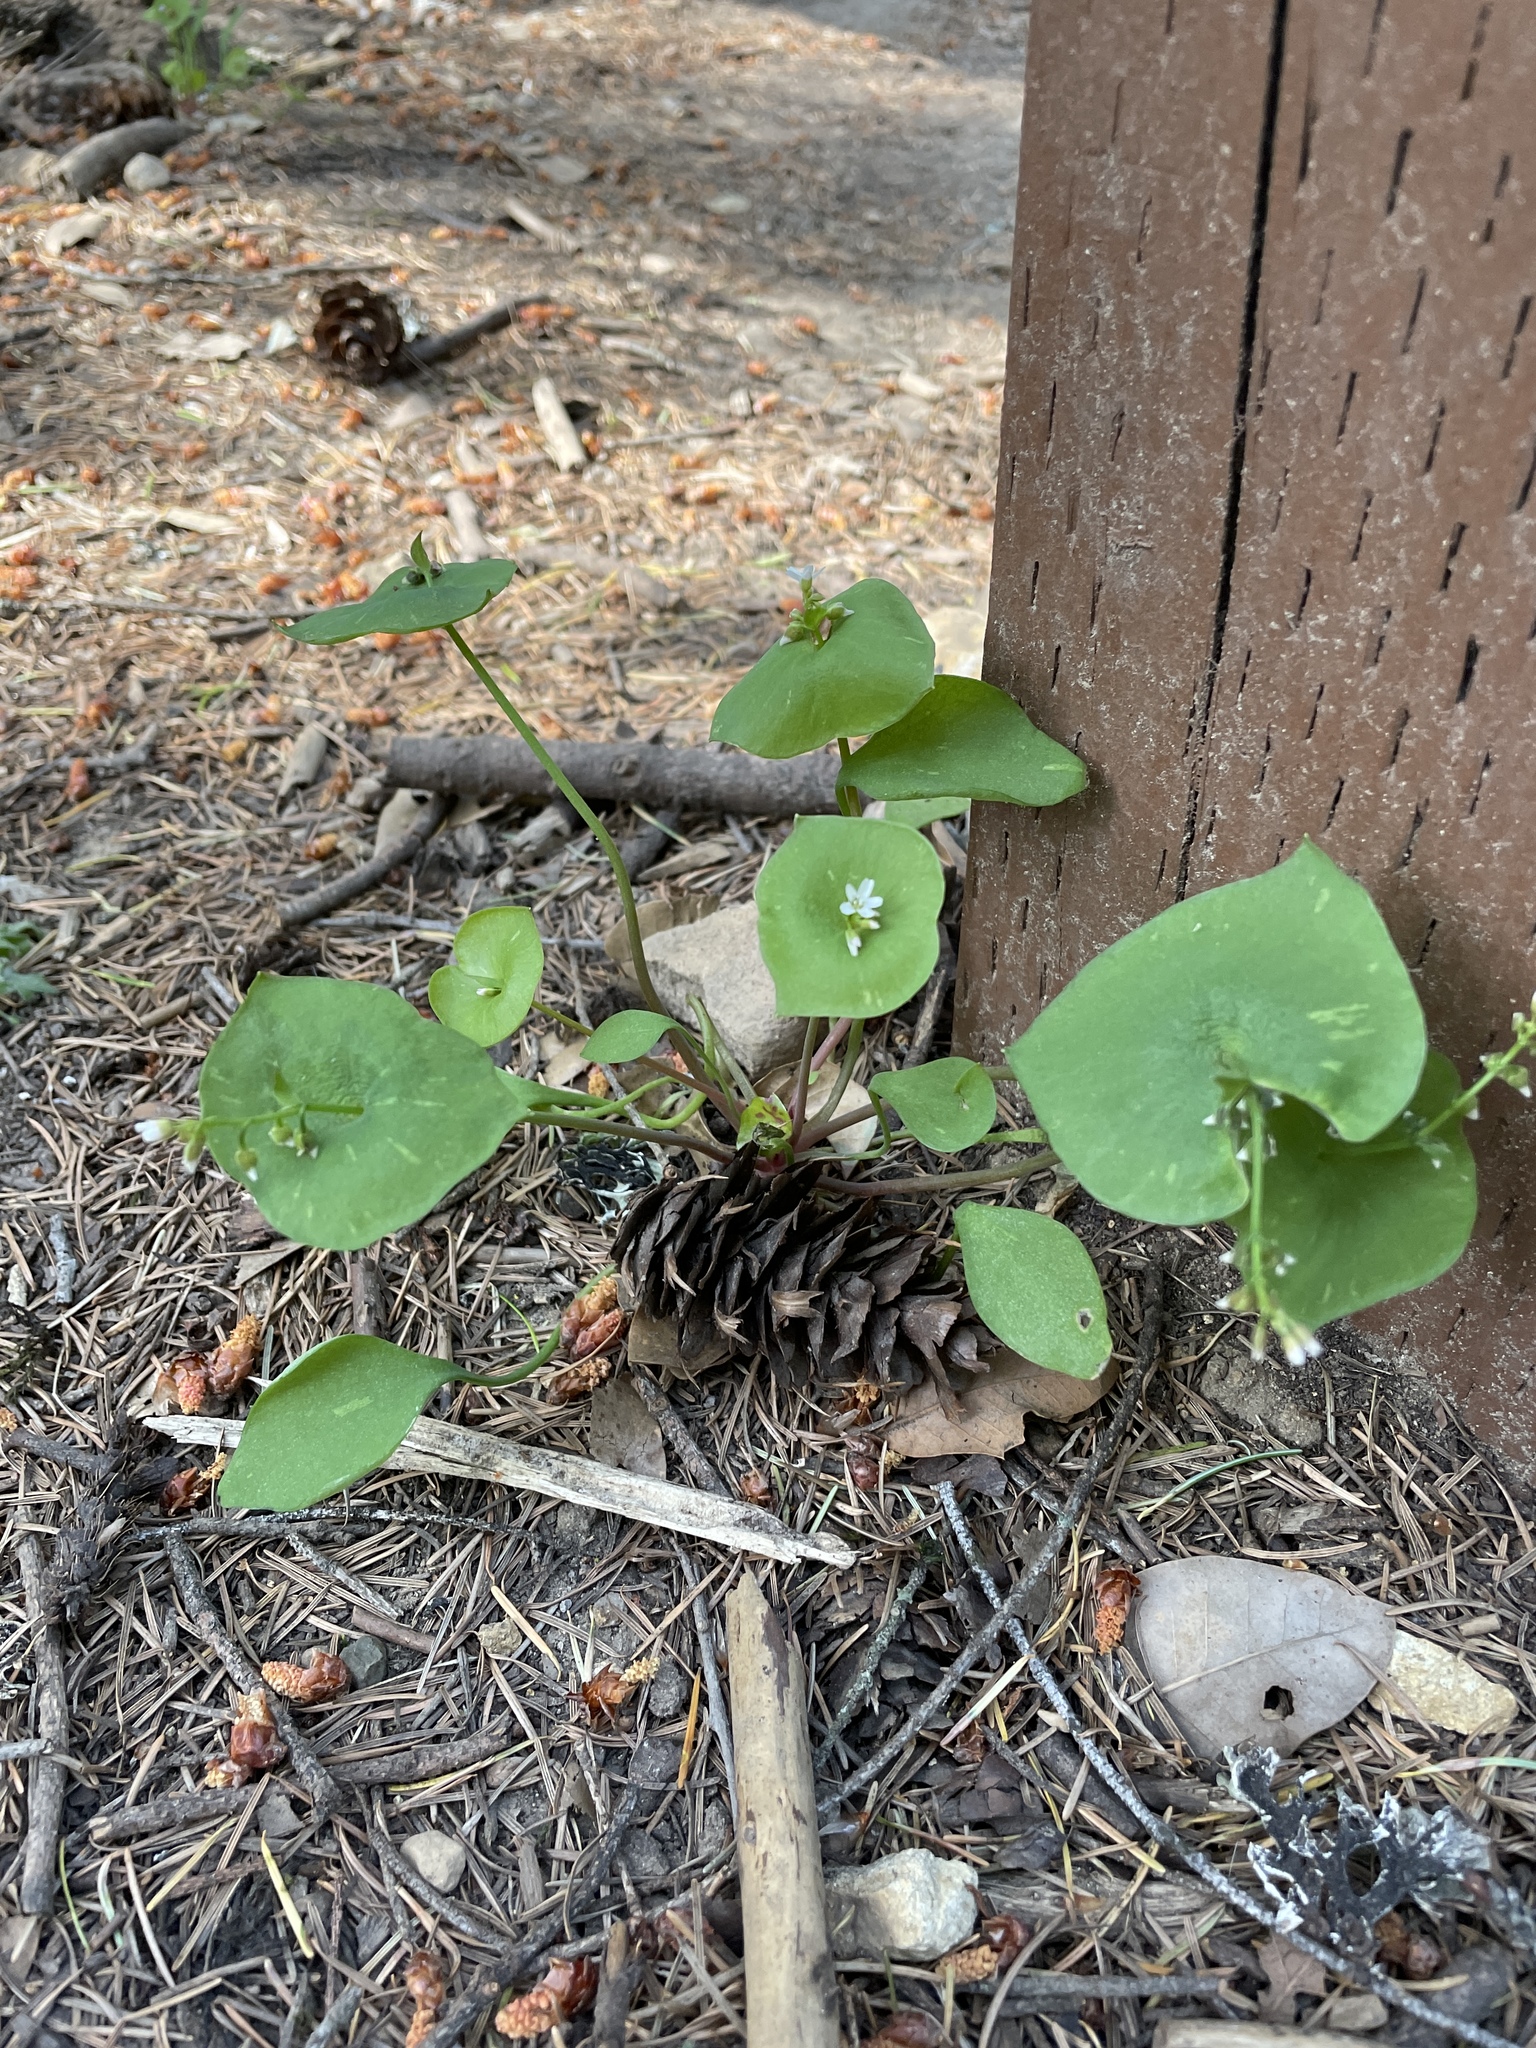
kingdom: Plantae
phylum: Tracheophyta
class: Magnoliopsida
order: Caryophyllales
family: Montiaceae
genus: Claytonia
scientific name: Claytonia perfoliata
